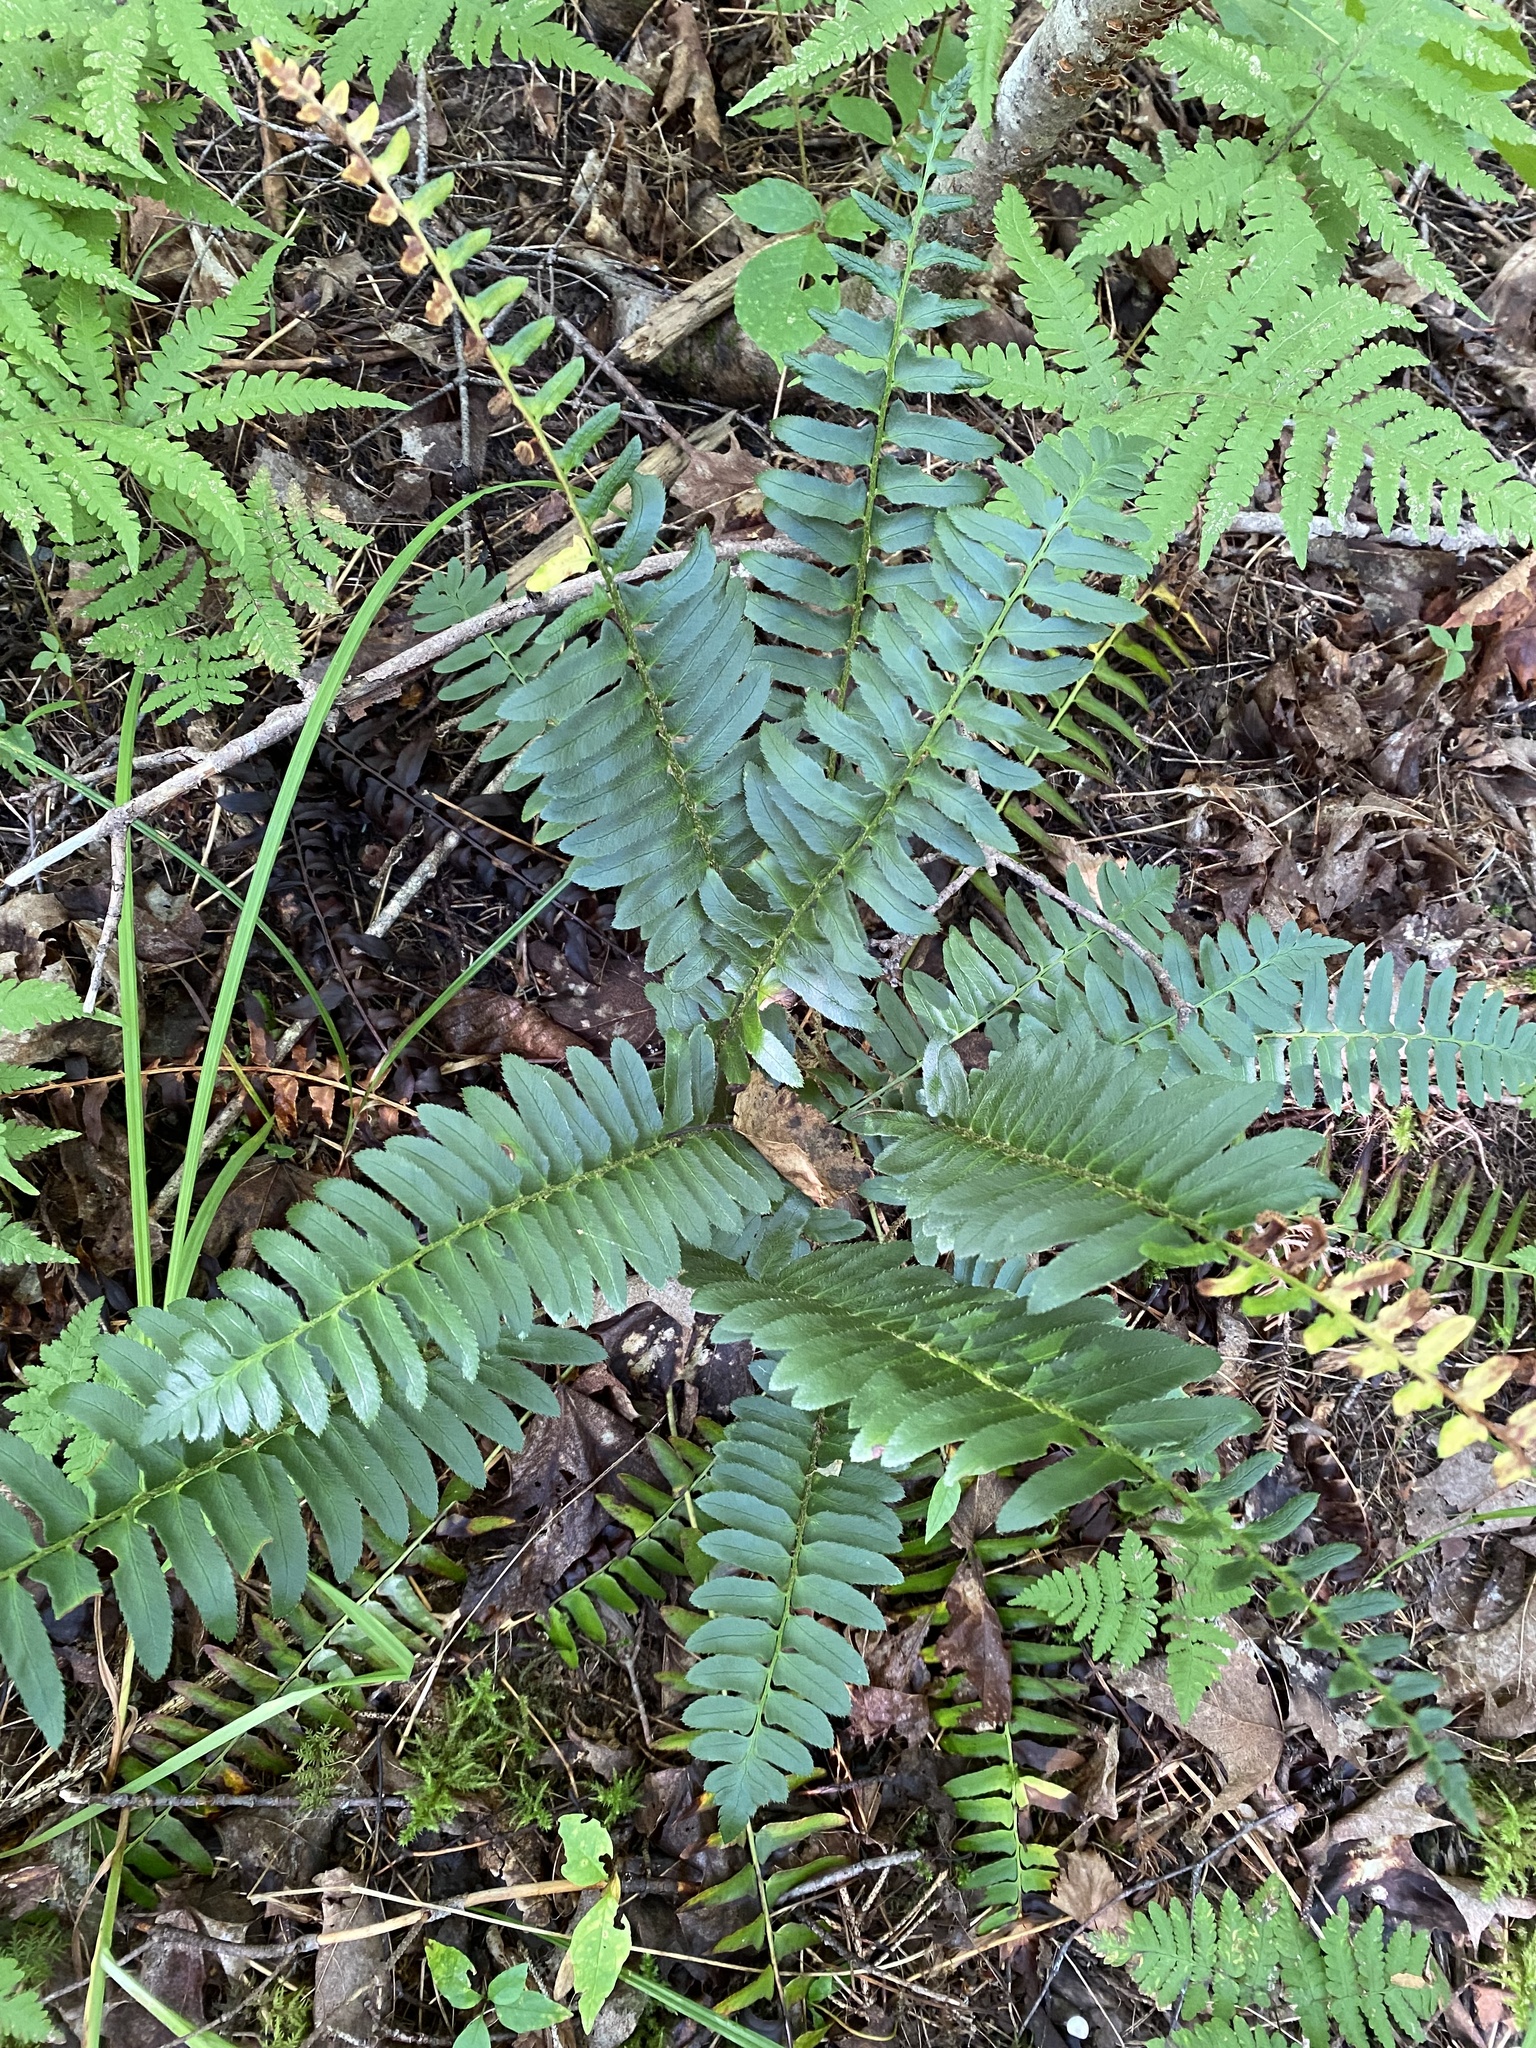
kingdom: Plantae
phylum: Tracheophyta
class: Polypodiopsida
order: Polypodiales
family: Dryopteridaceae
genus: Polystichum
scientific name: Polystichum acrostichoides
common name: Christmas fern
